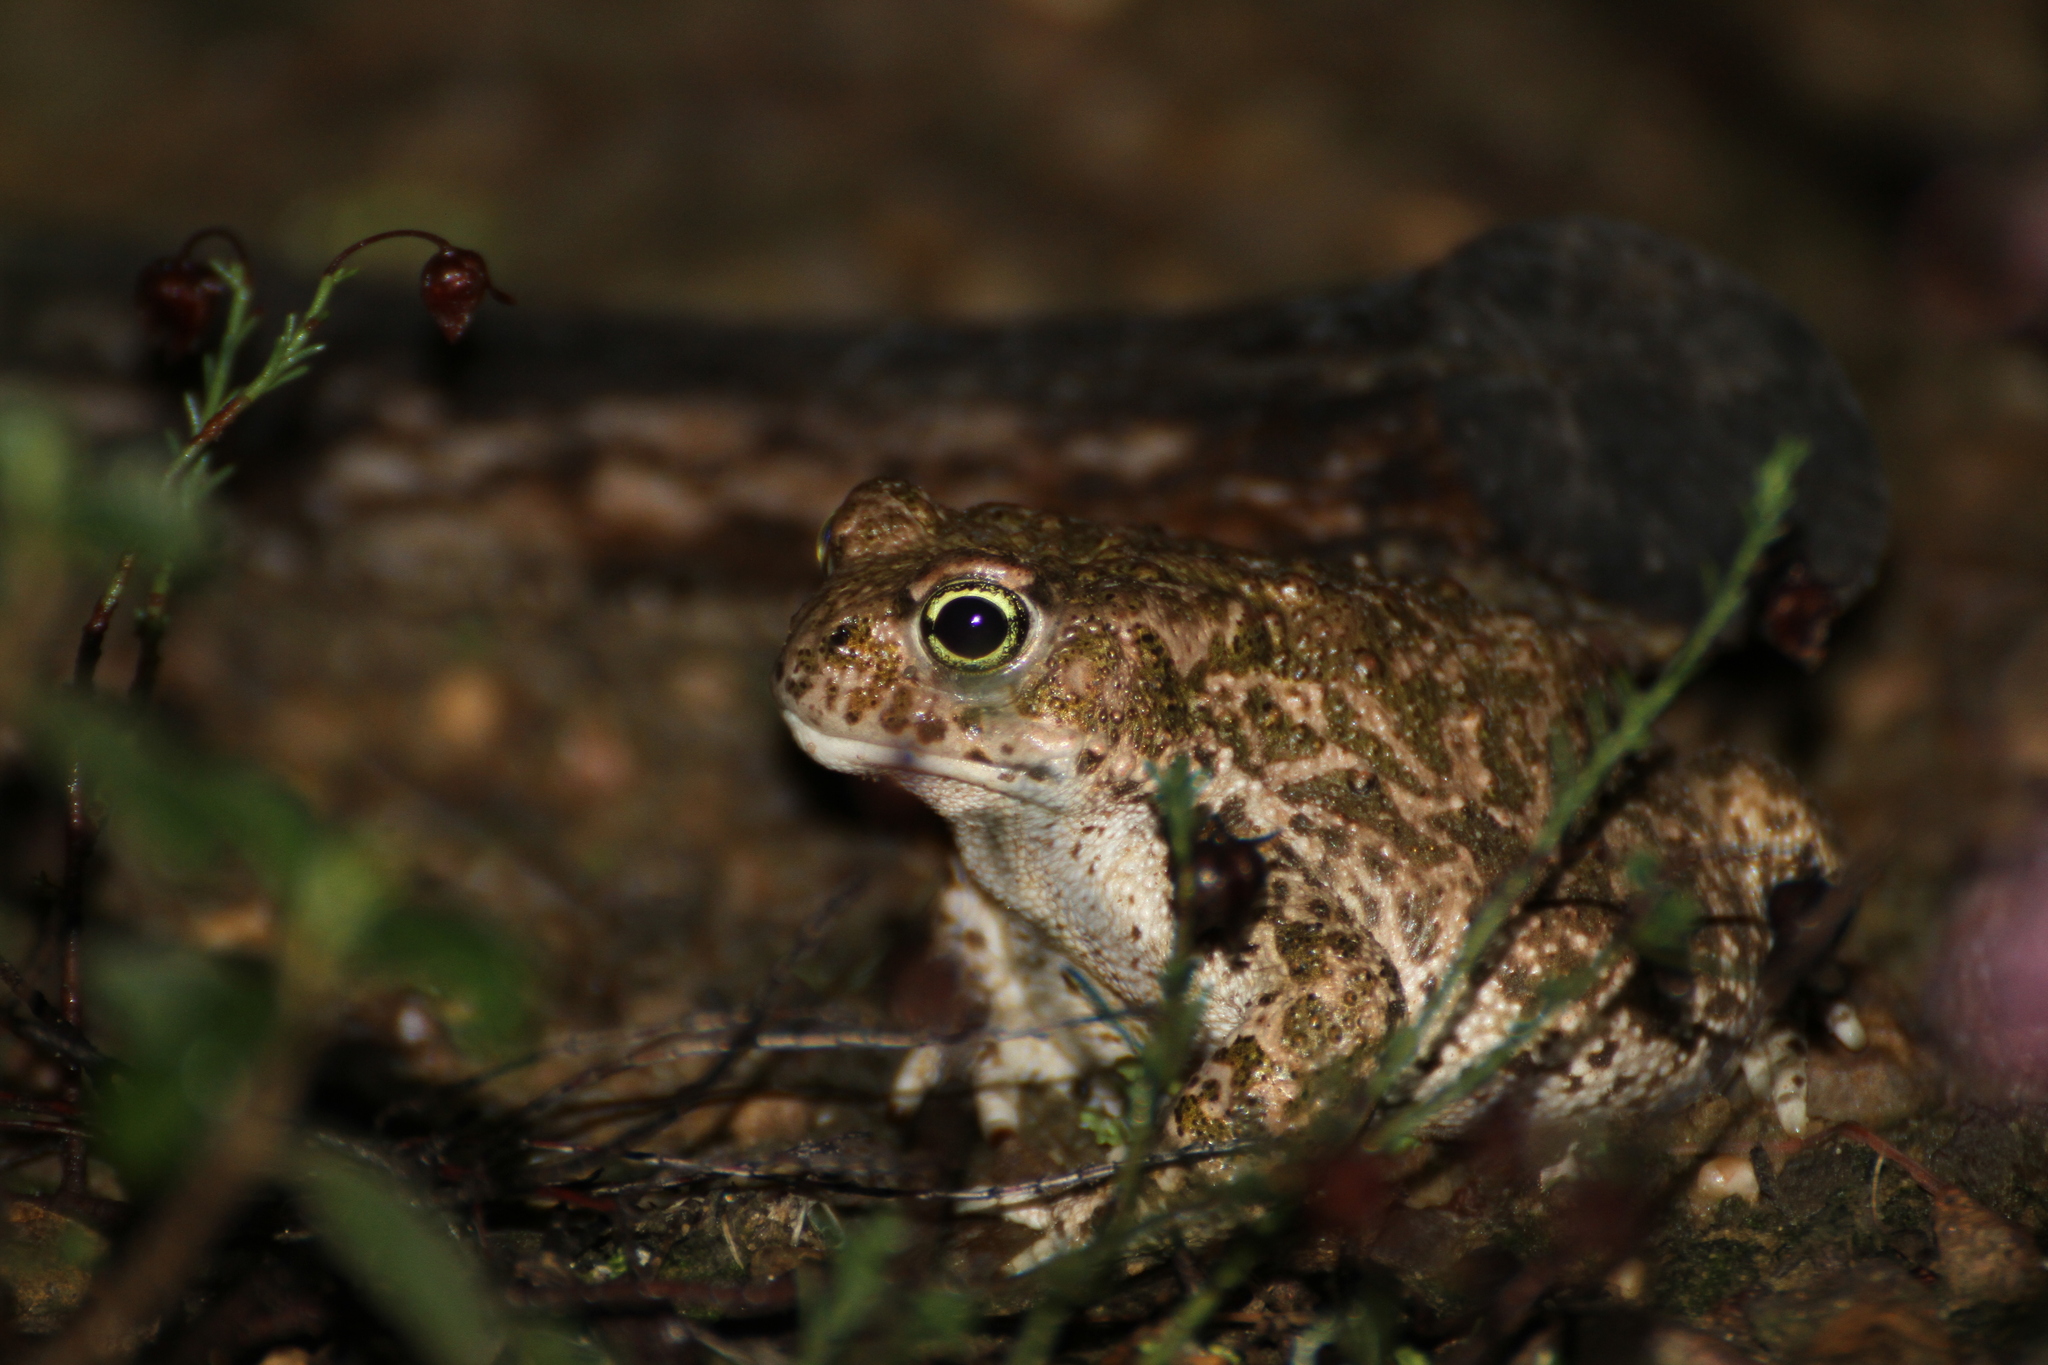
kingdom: Animalia
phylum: Chordata
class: Amphibia
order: Anura
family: Bufonidae
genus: Epidalea
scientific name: Epidalea calamita
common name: Natterjack toad
